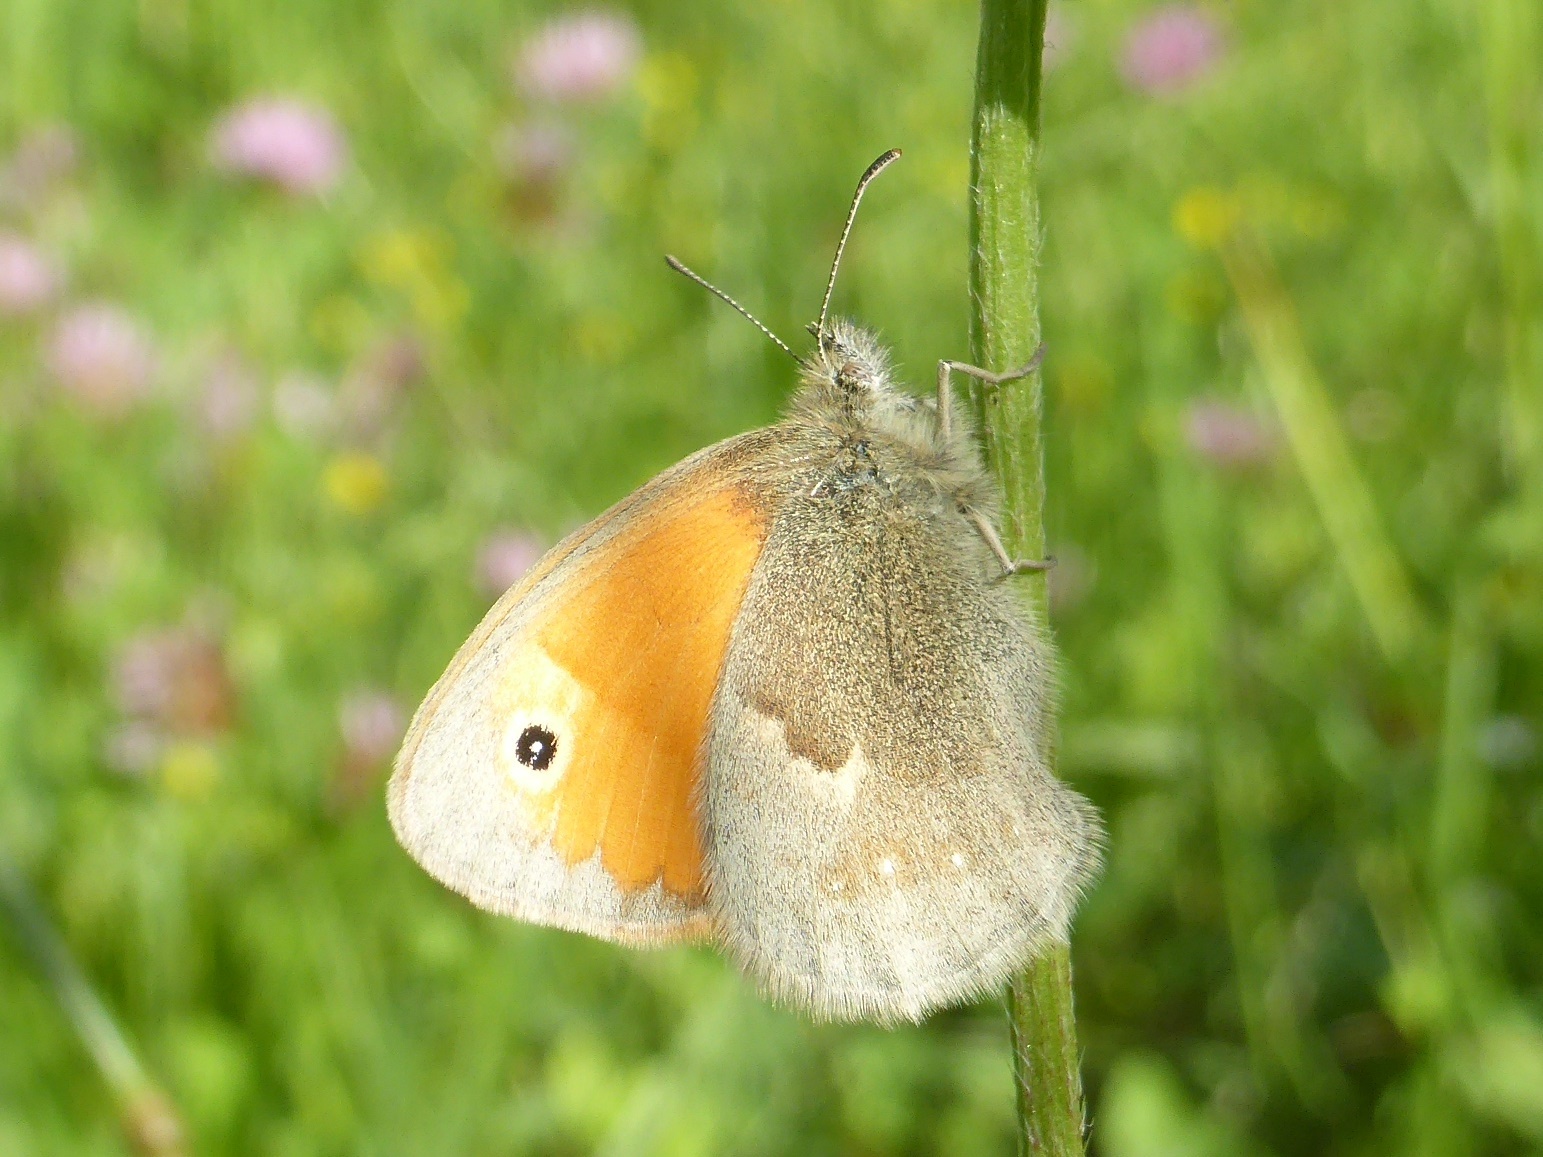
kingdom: Animalia
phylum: Arthropoda
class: Insecta
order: Lepidoptera
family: Nymphalidae
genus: Coenonympha
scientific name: Coenonympha pamphilus
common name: Small heath
